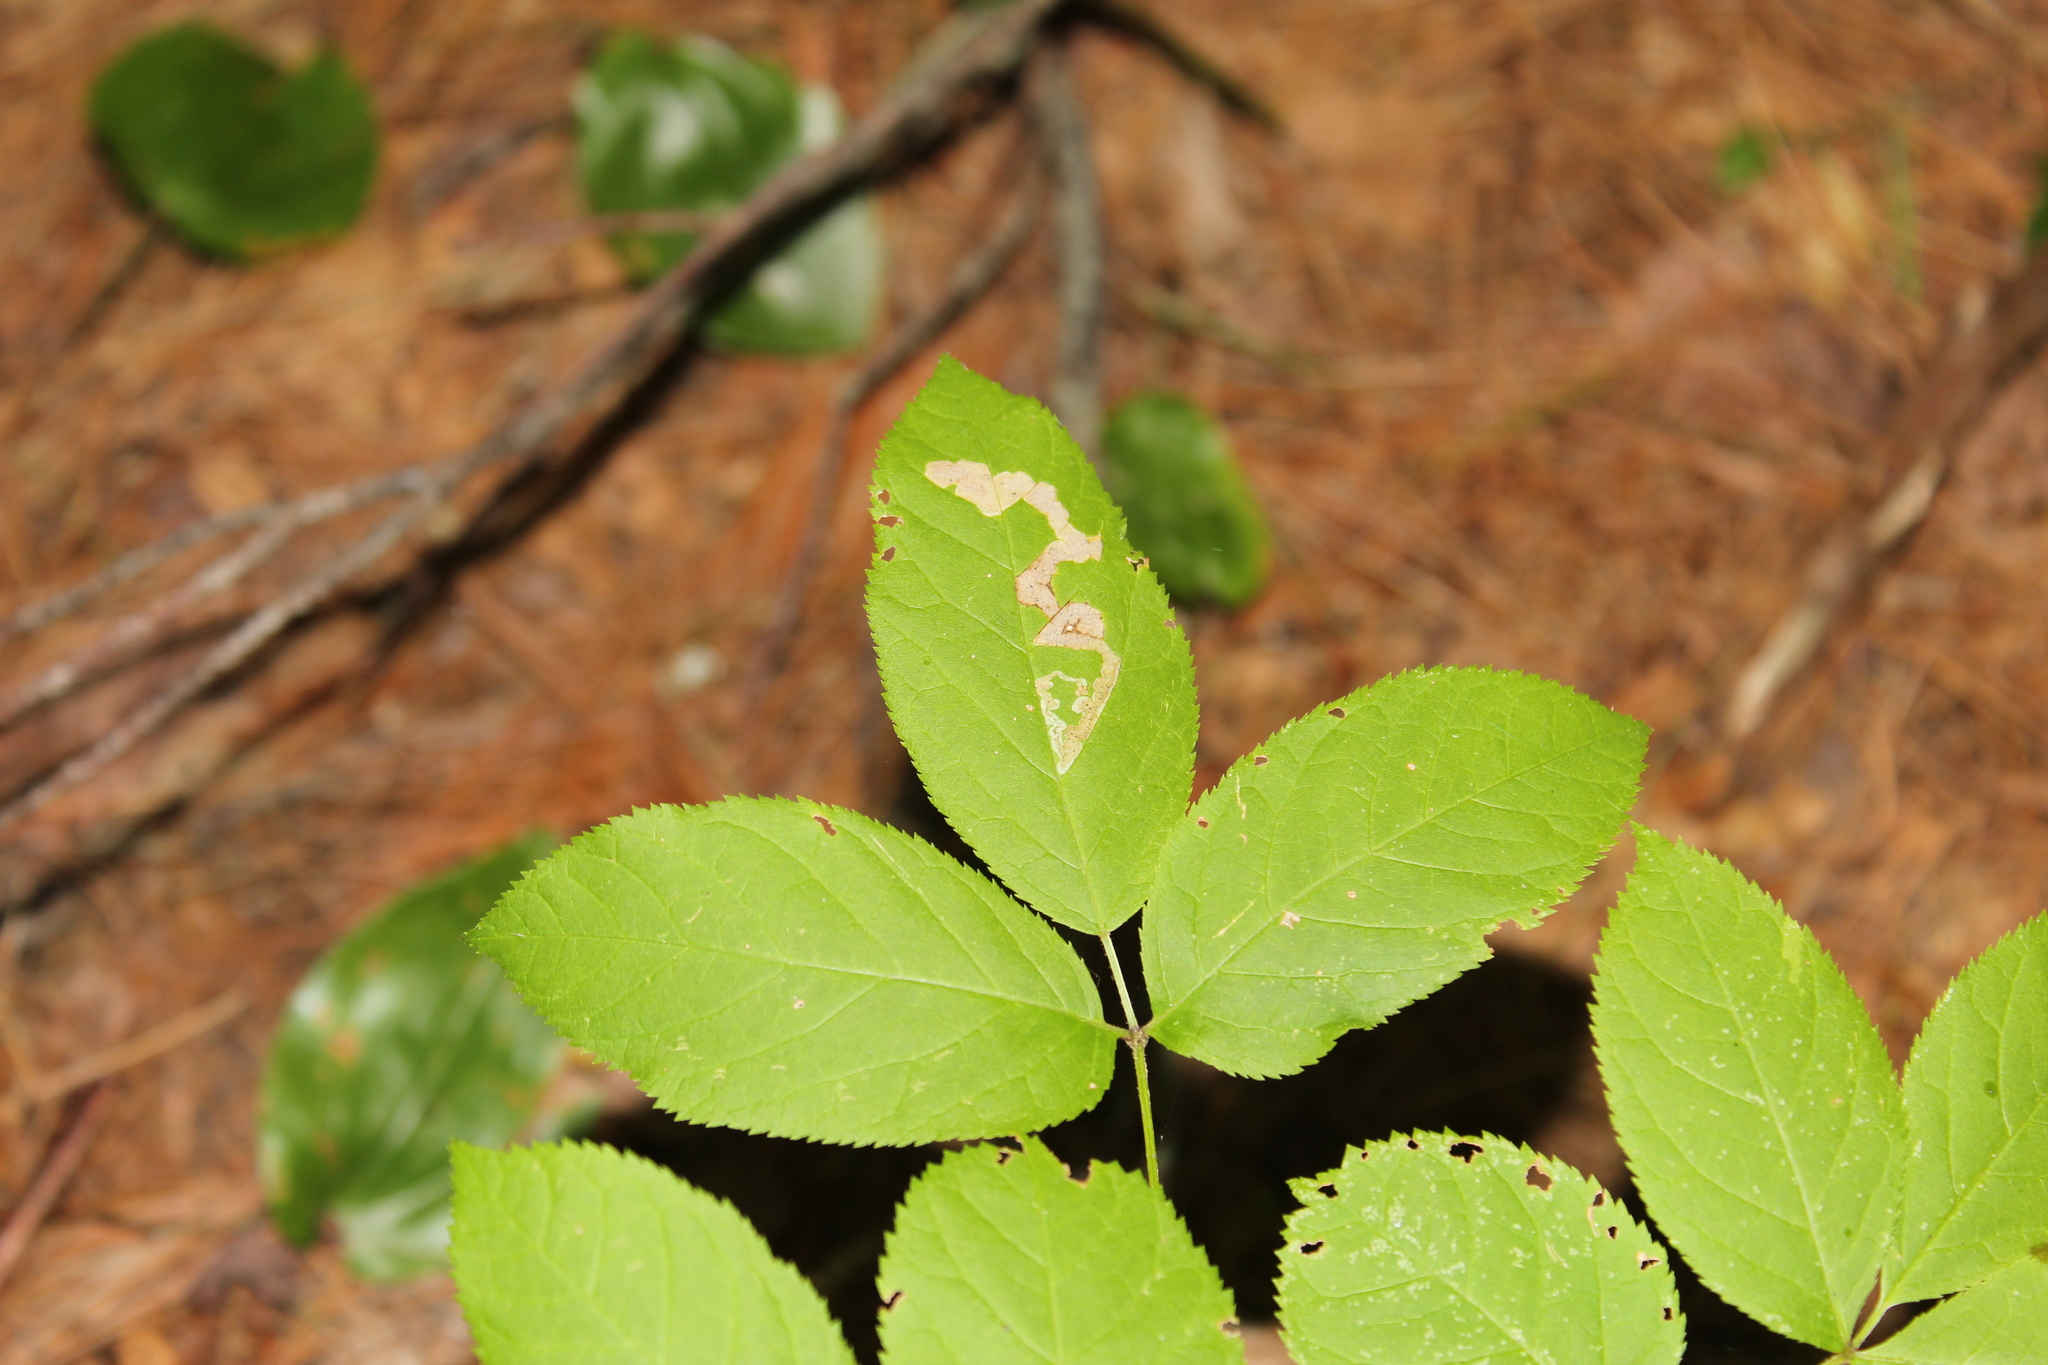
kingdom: Animalia
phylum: Arthropoda
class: Insecta
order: Diptera
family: Agromyzidae
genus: Phytomyza
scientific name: Phytomyza aralivora
